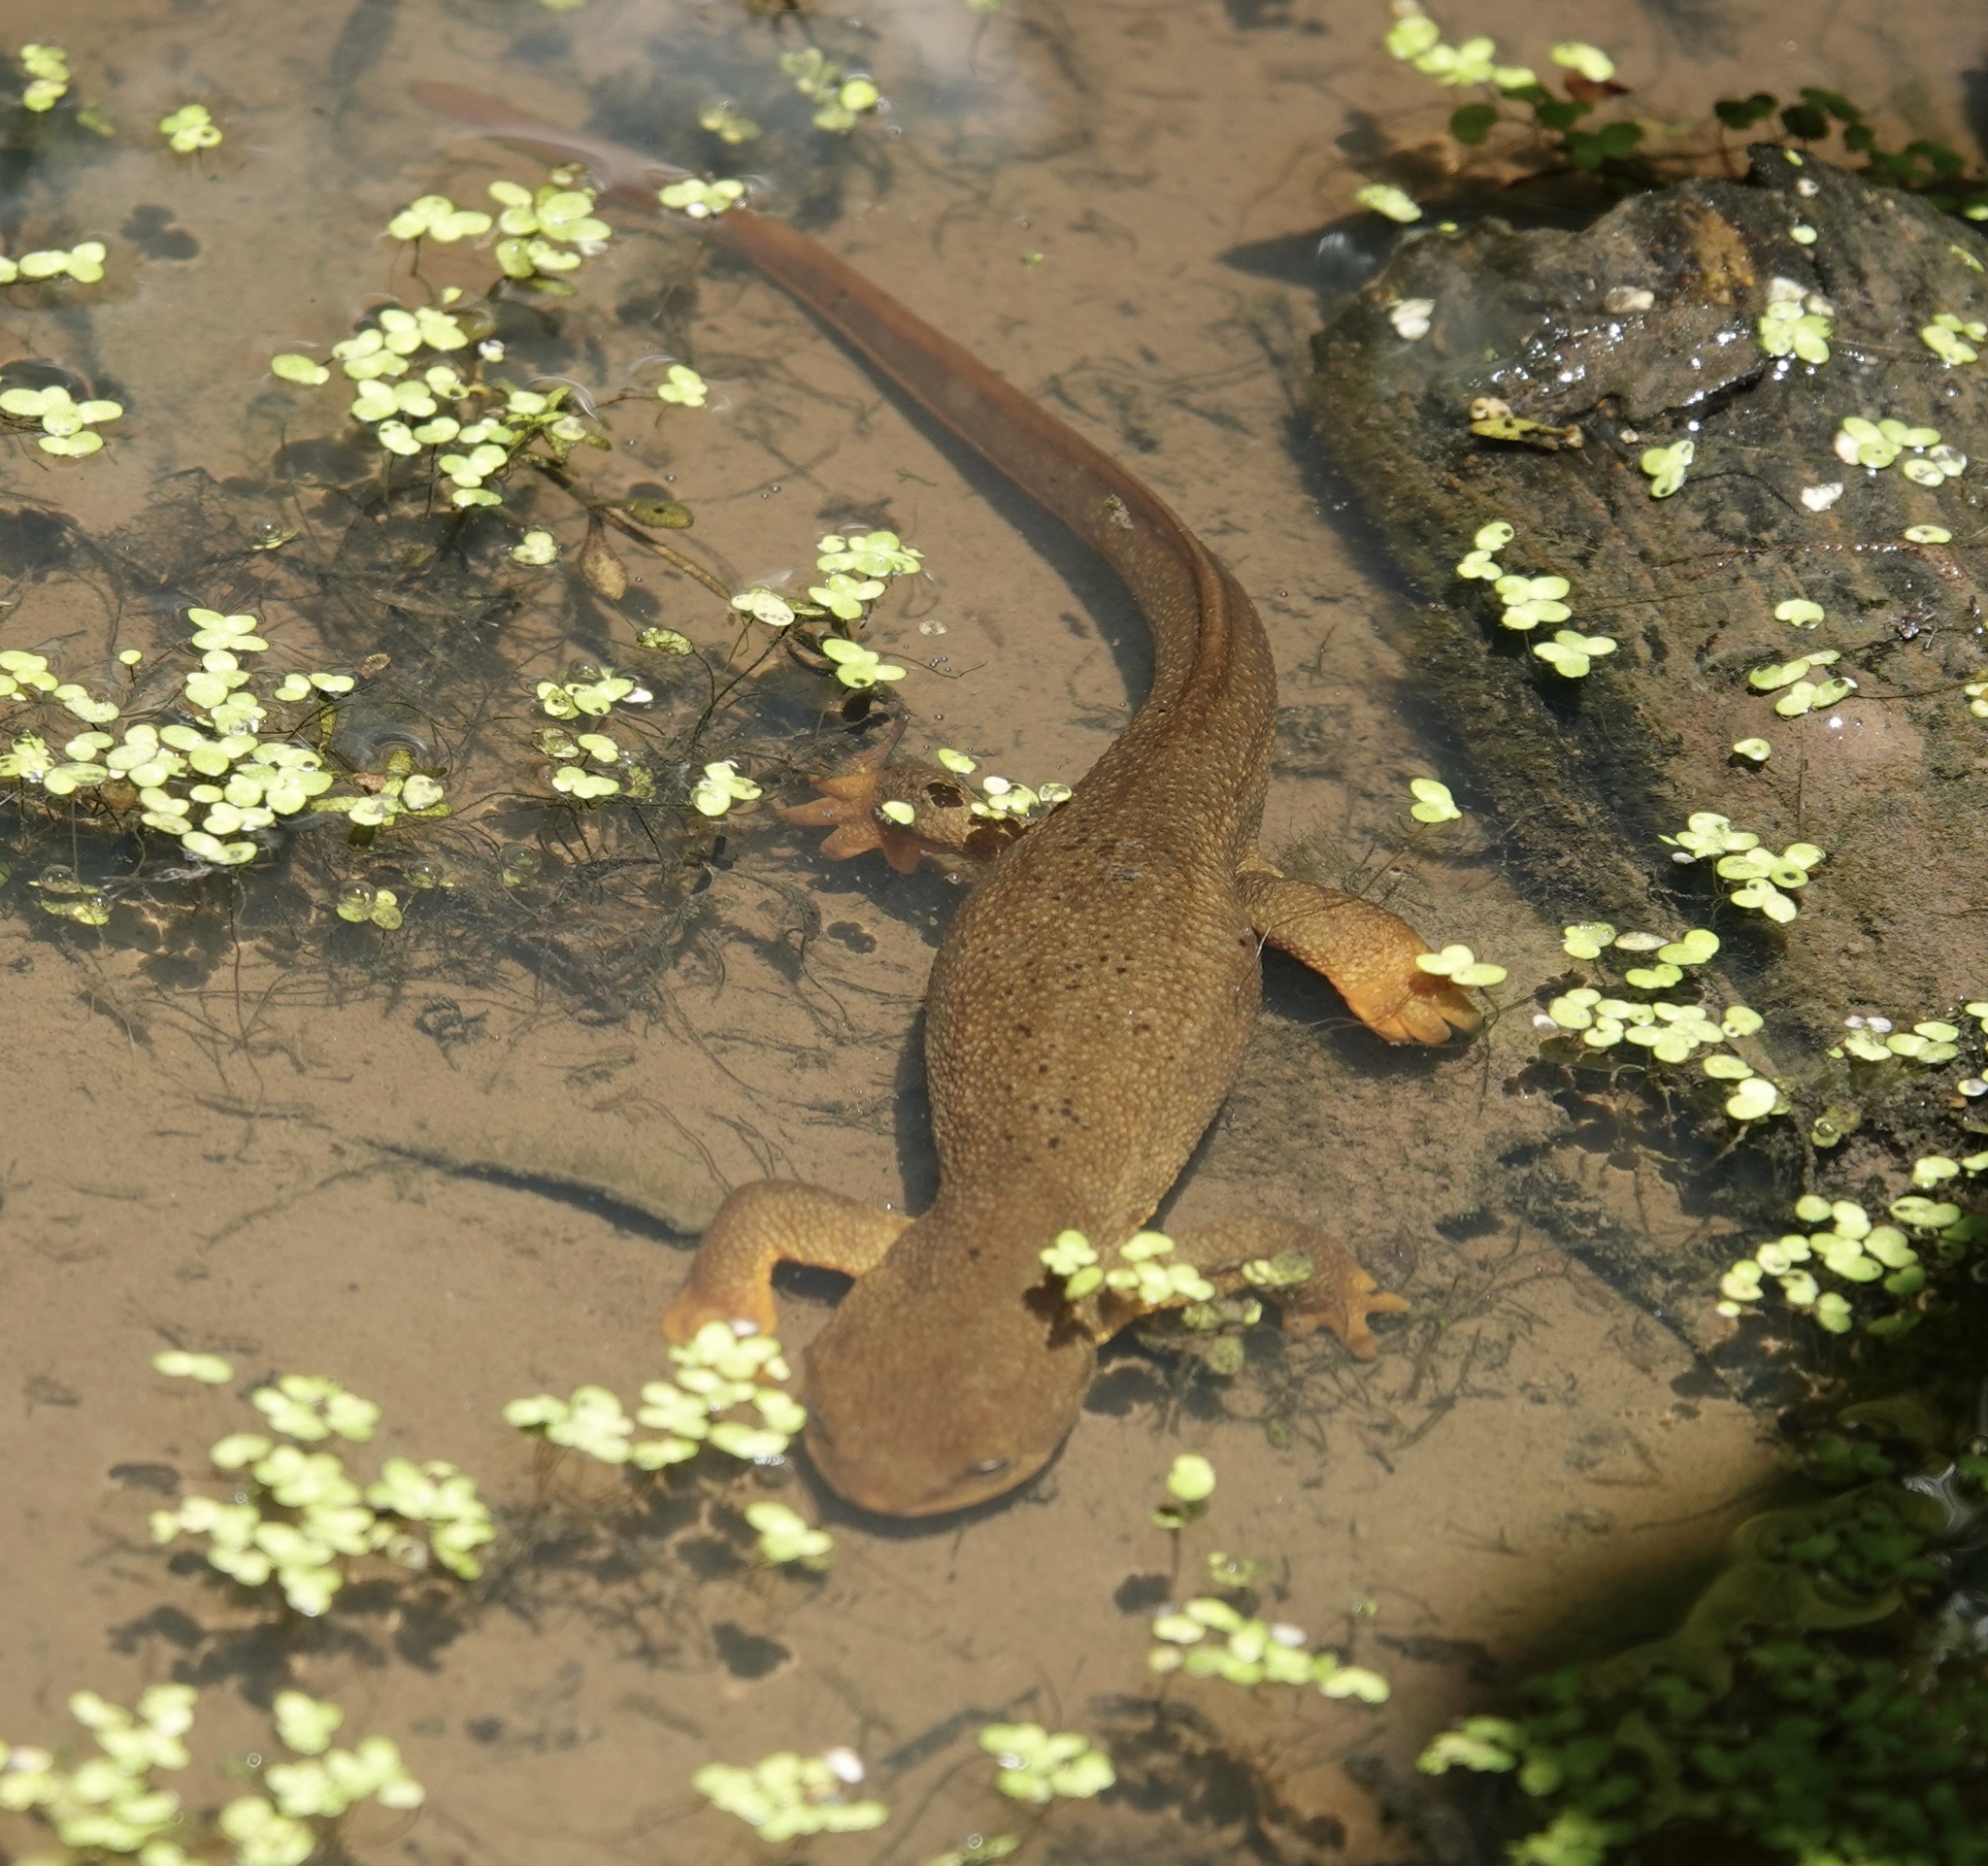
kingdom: Animalia
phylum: Chordata
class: Amphibia
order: Caudata
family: Salamandridae
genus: Taricha
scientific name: Taricha granulosa
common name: Roughskin newt
